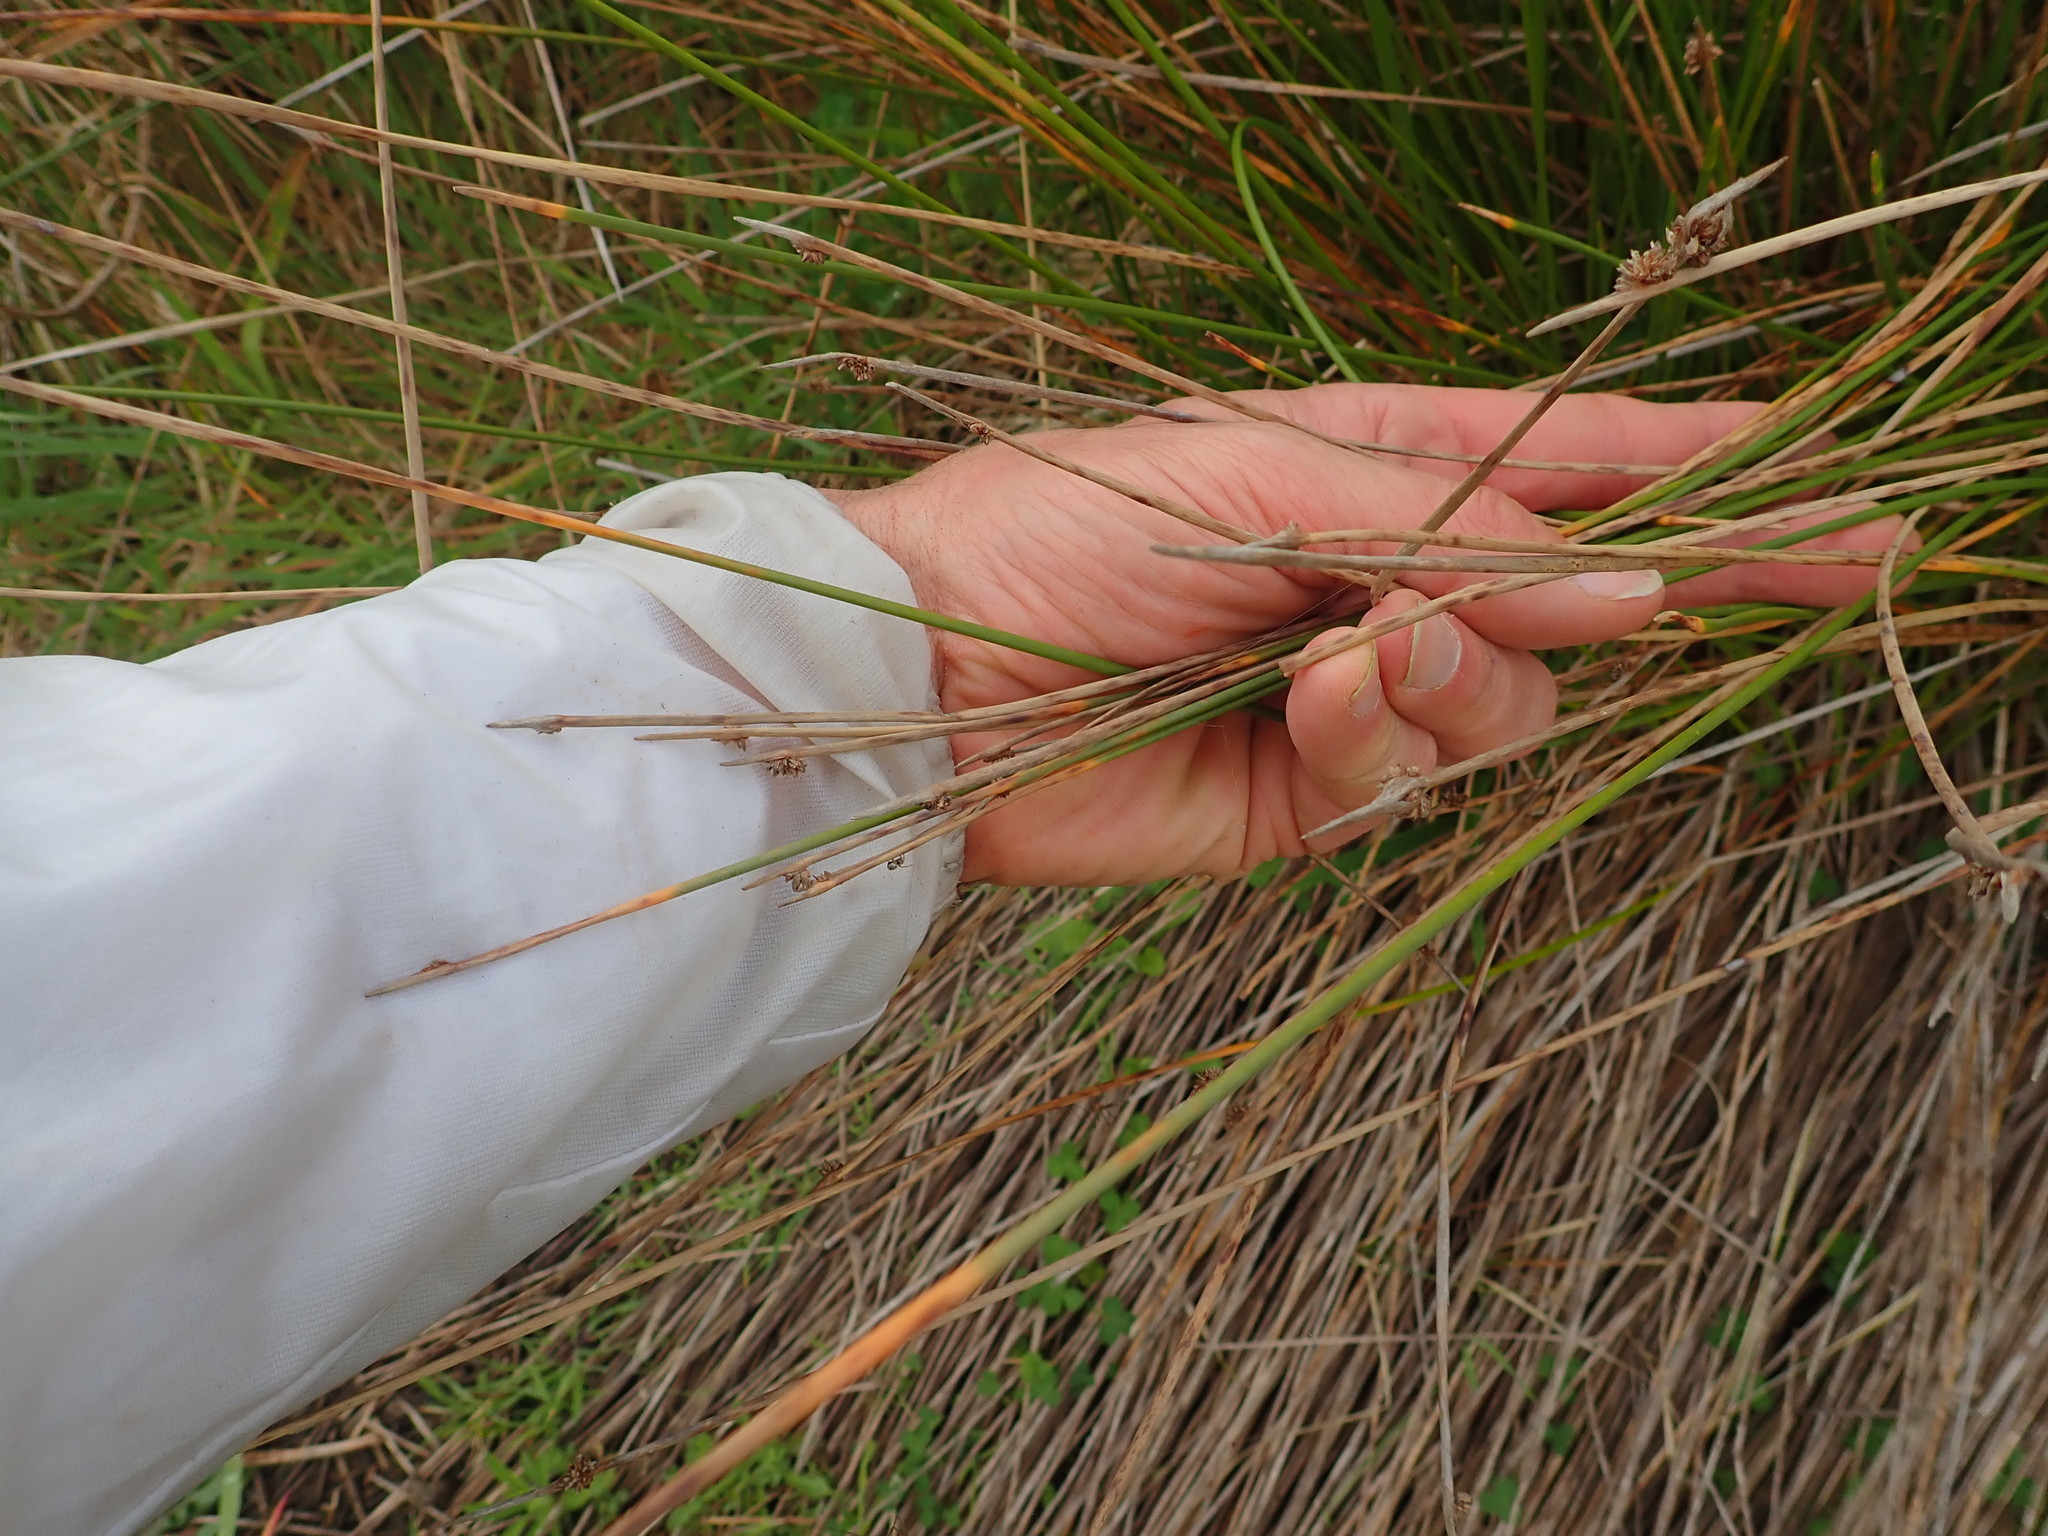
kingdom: Plantae
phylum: Tracheophyta
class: Liliopsida
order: Poales
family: Cyperaceae
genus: Ficinia
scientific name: Ficinia nodosa
